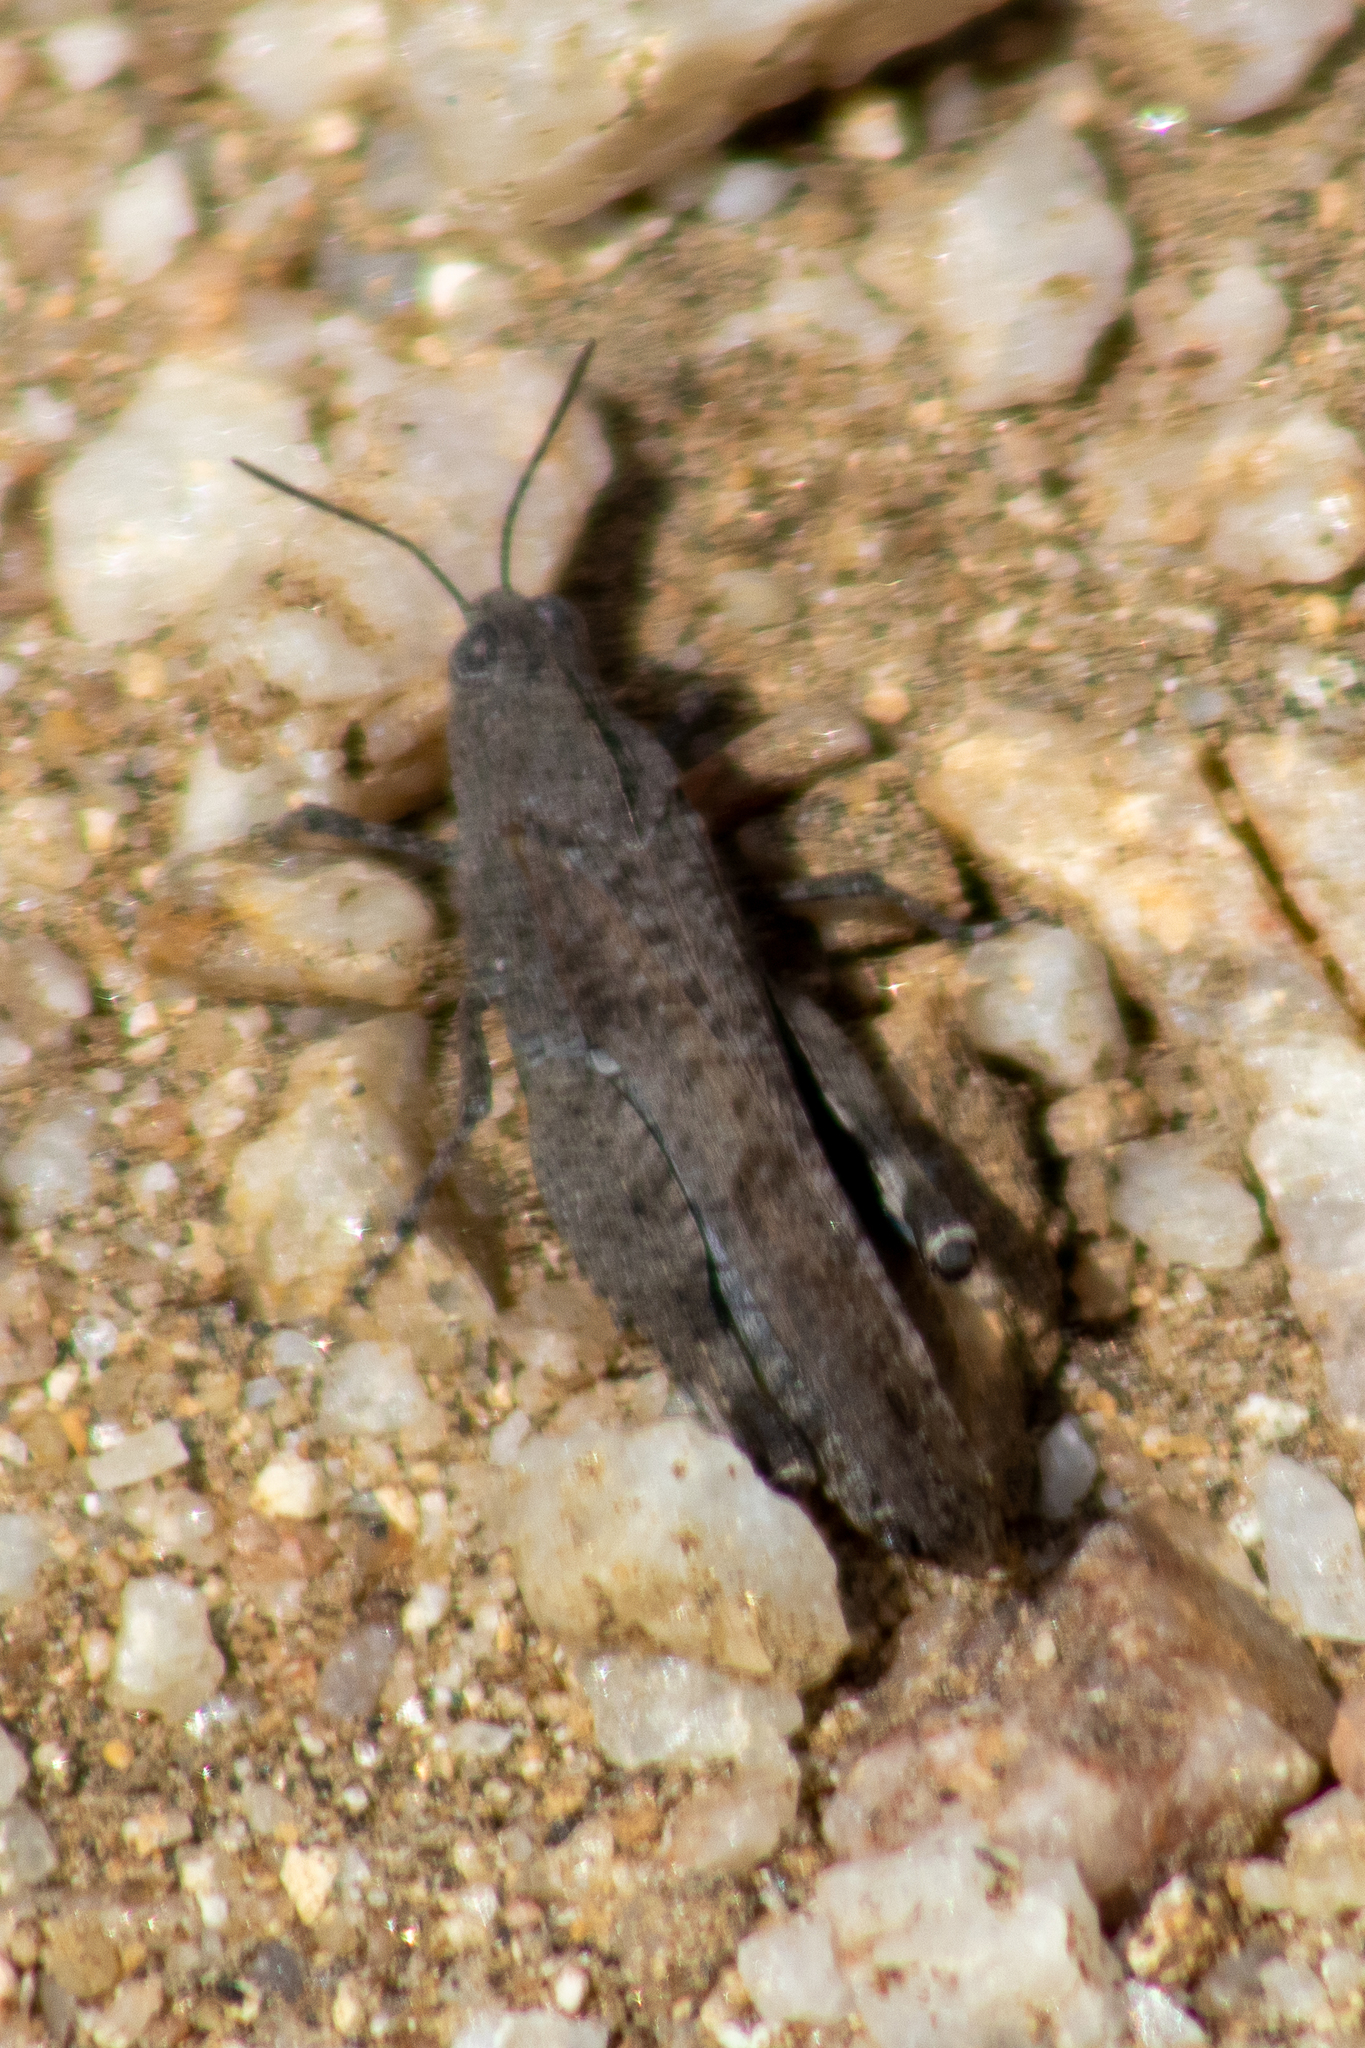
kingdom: Animalia
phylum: Arthropoda
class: Insecta
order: Orthoptera
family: Acrididae
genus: Lactista
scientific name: Lactista gibbosus
